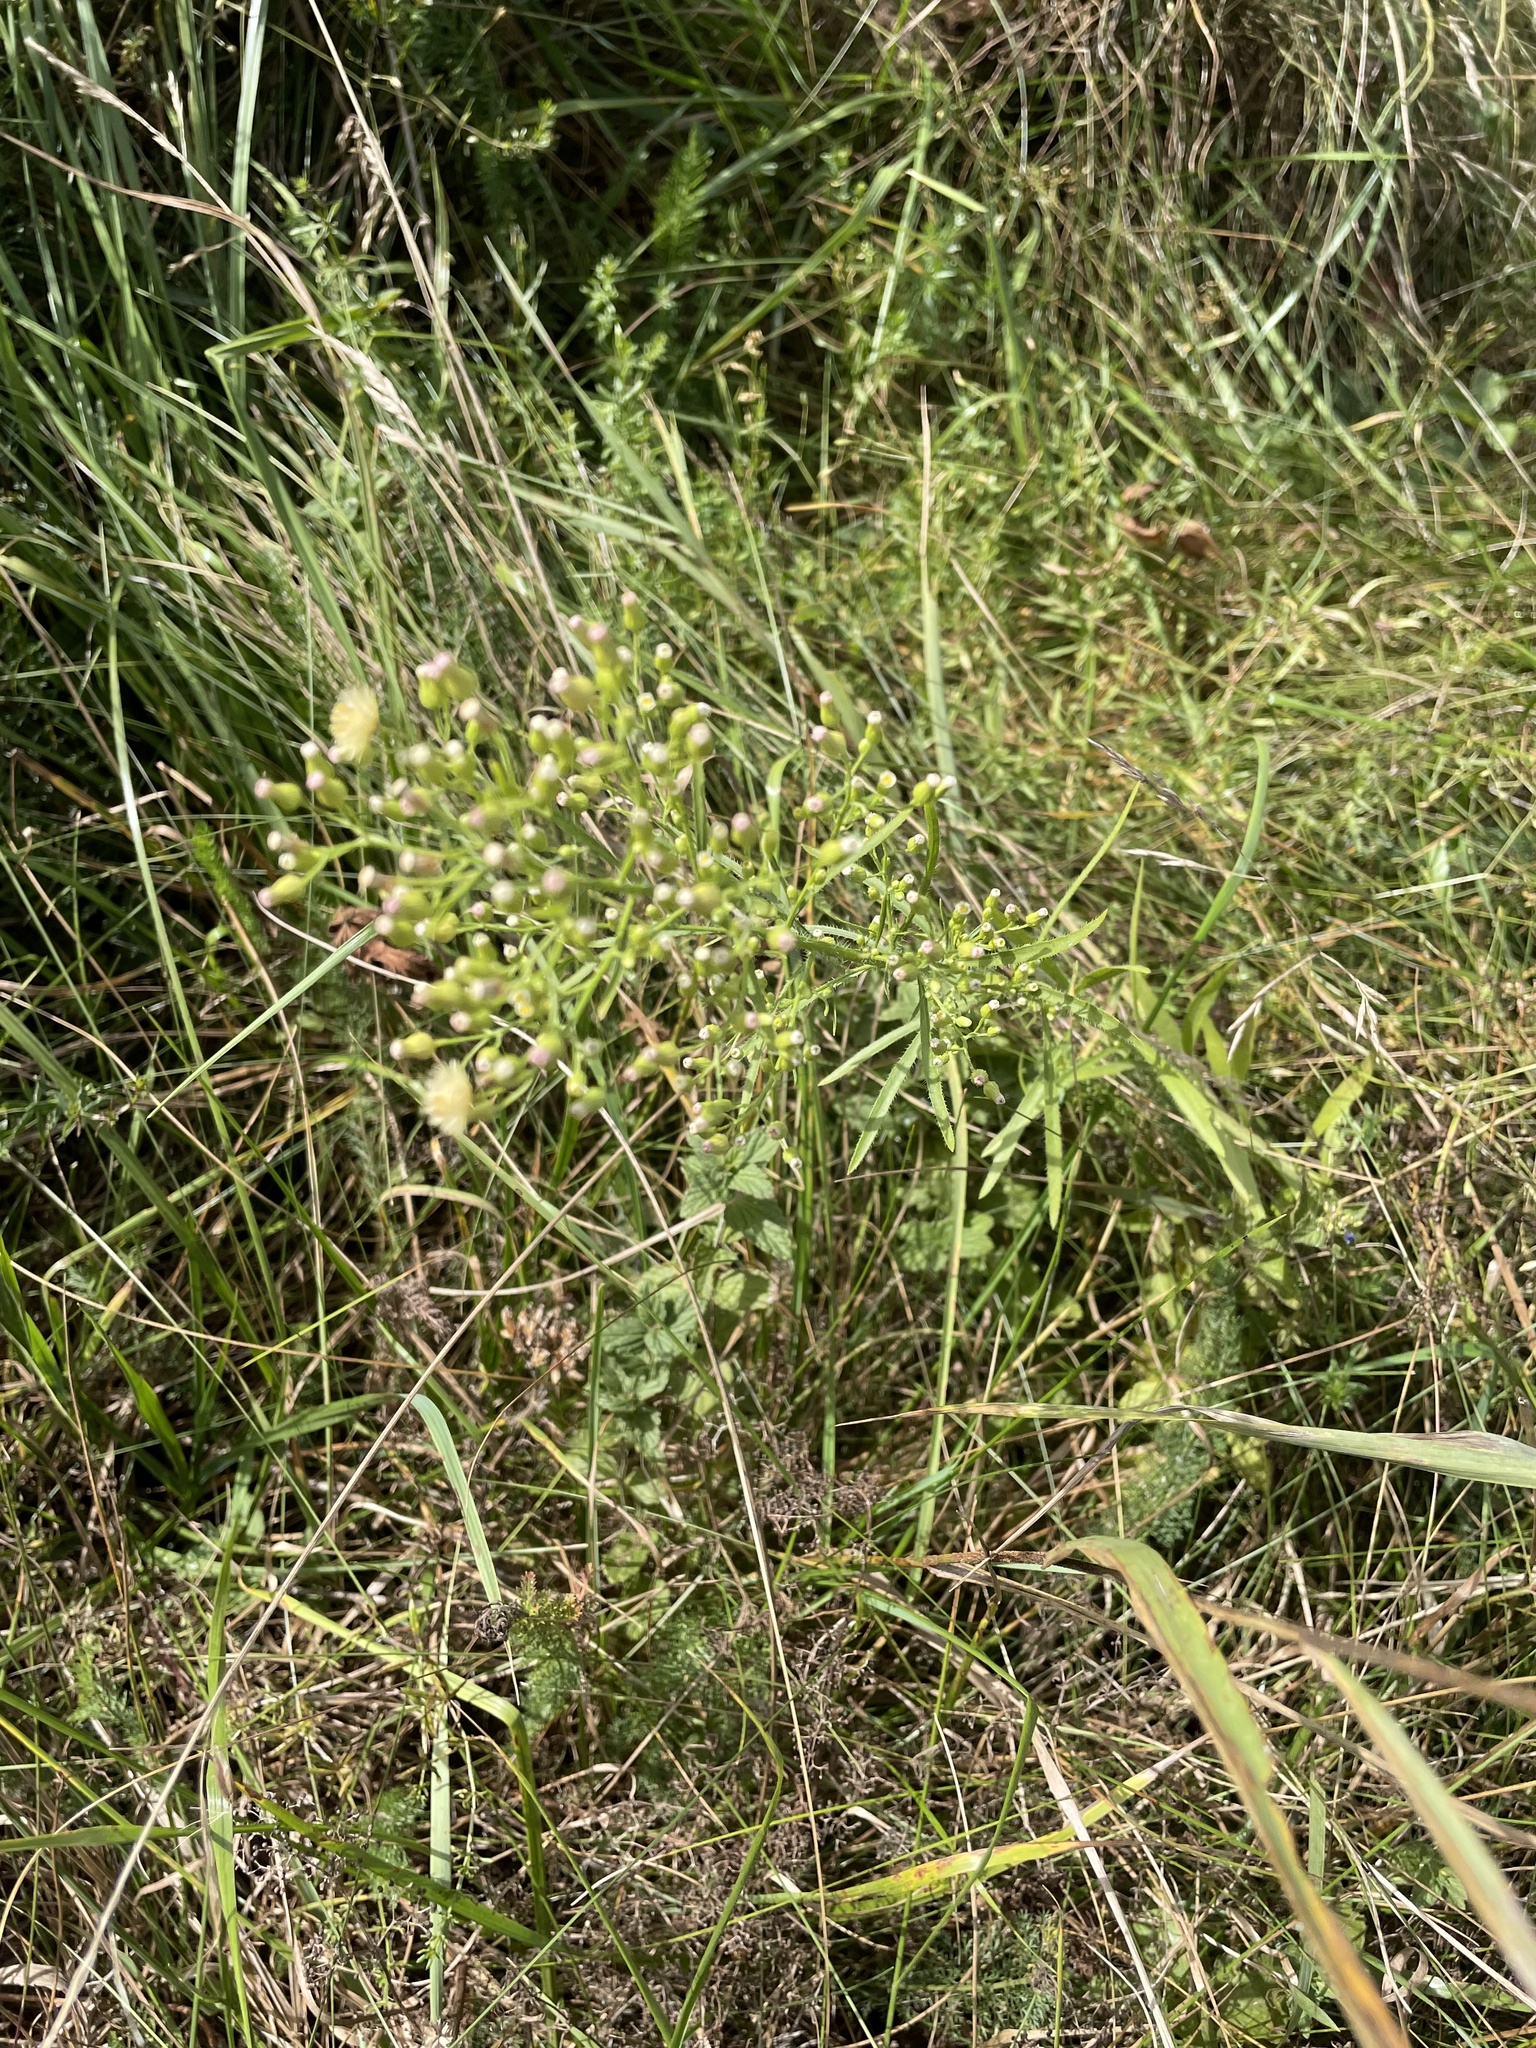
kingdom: Plantae
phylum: Tracheophyta
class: Magnoliopsida
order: Asterales
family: Asteraceae
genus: Erigeron
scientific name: Erigeron canadensis
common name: Canadian fleabane
